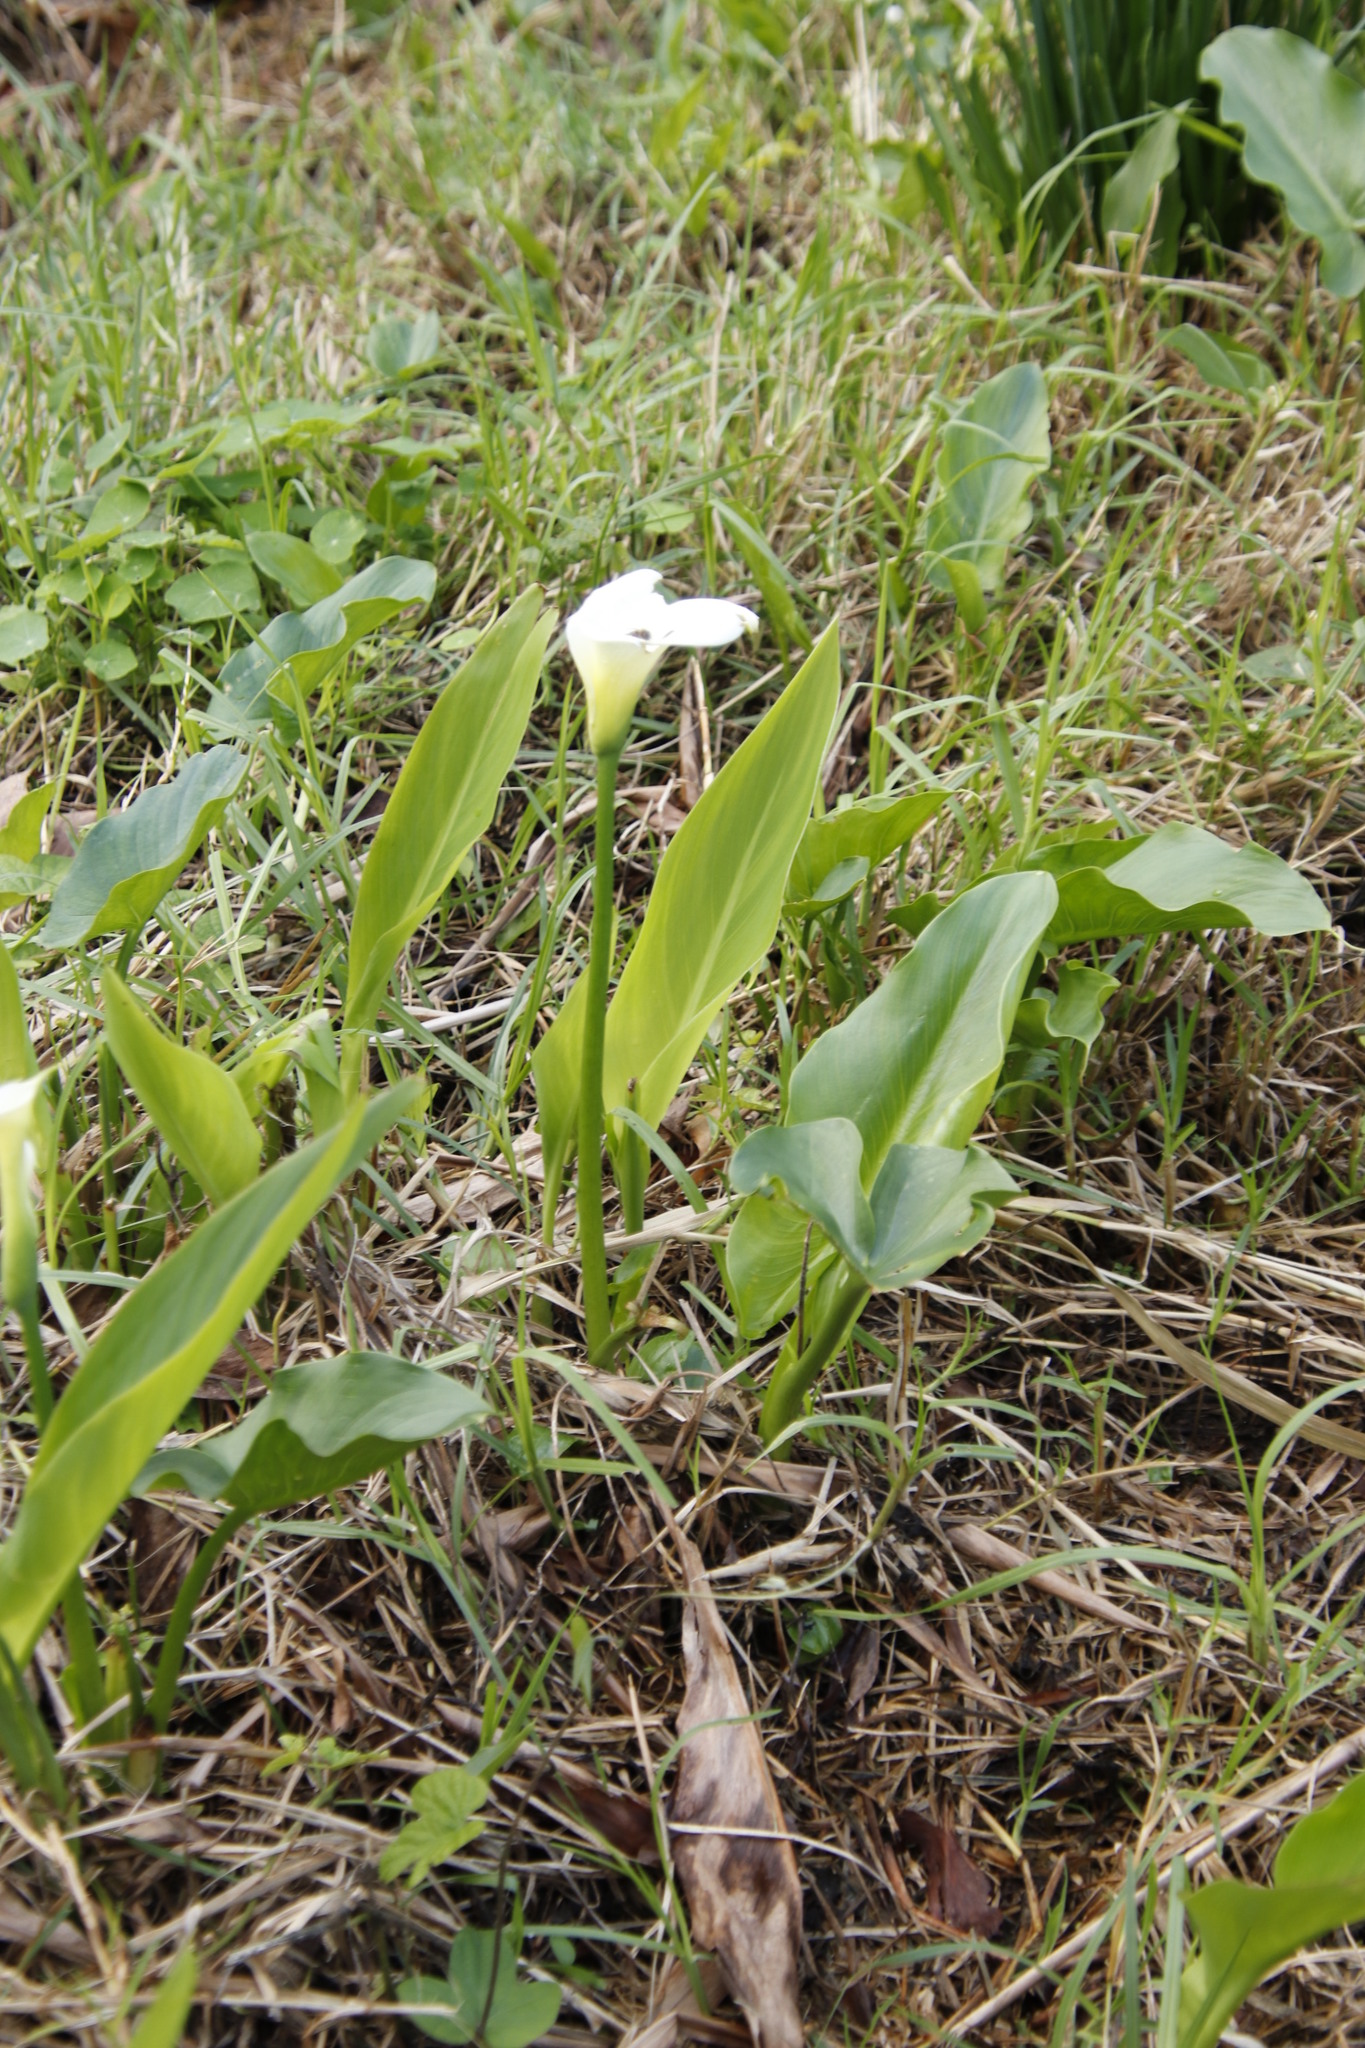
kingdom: Plantae
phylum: Tracheophyta
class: Liliopsida
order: Alismatales
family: Araceae
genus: Zantedeschia
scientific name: Zantedeschia aethiopica
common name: Altar-lily
